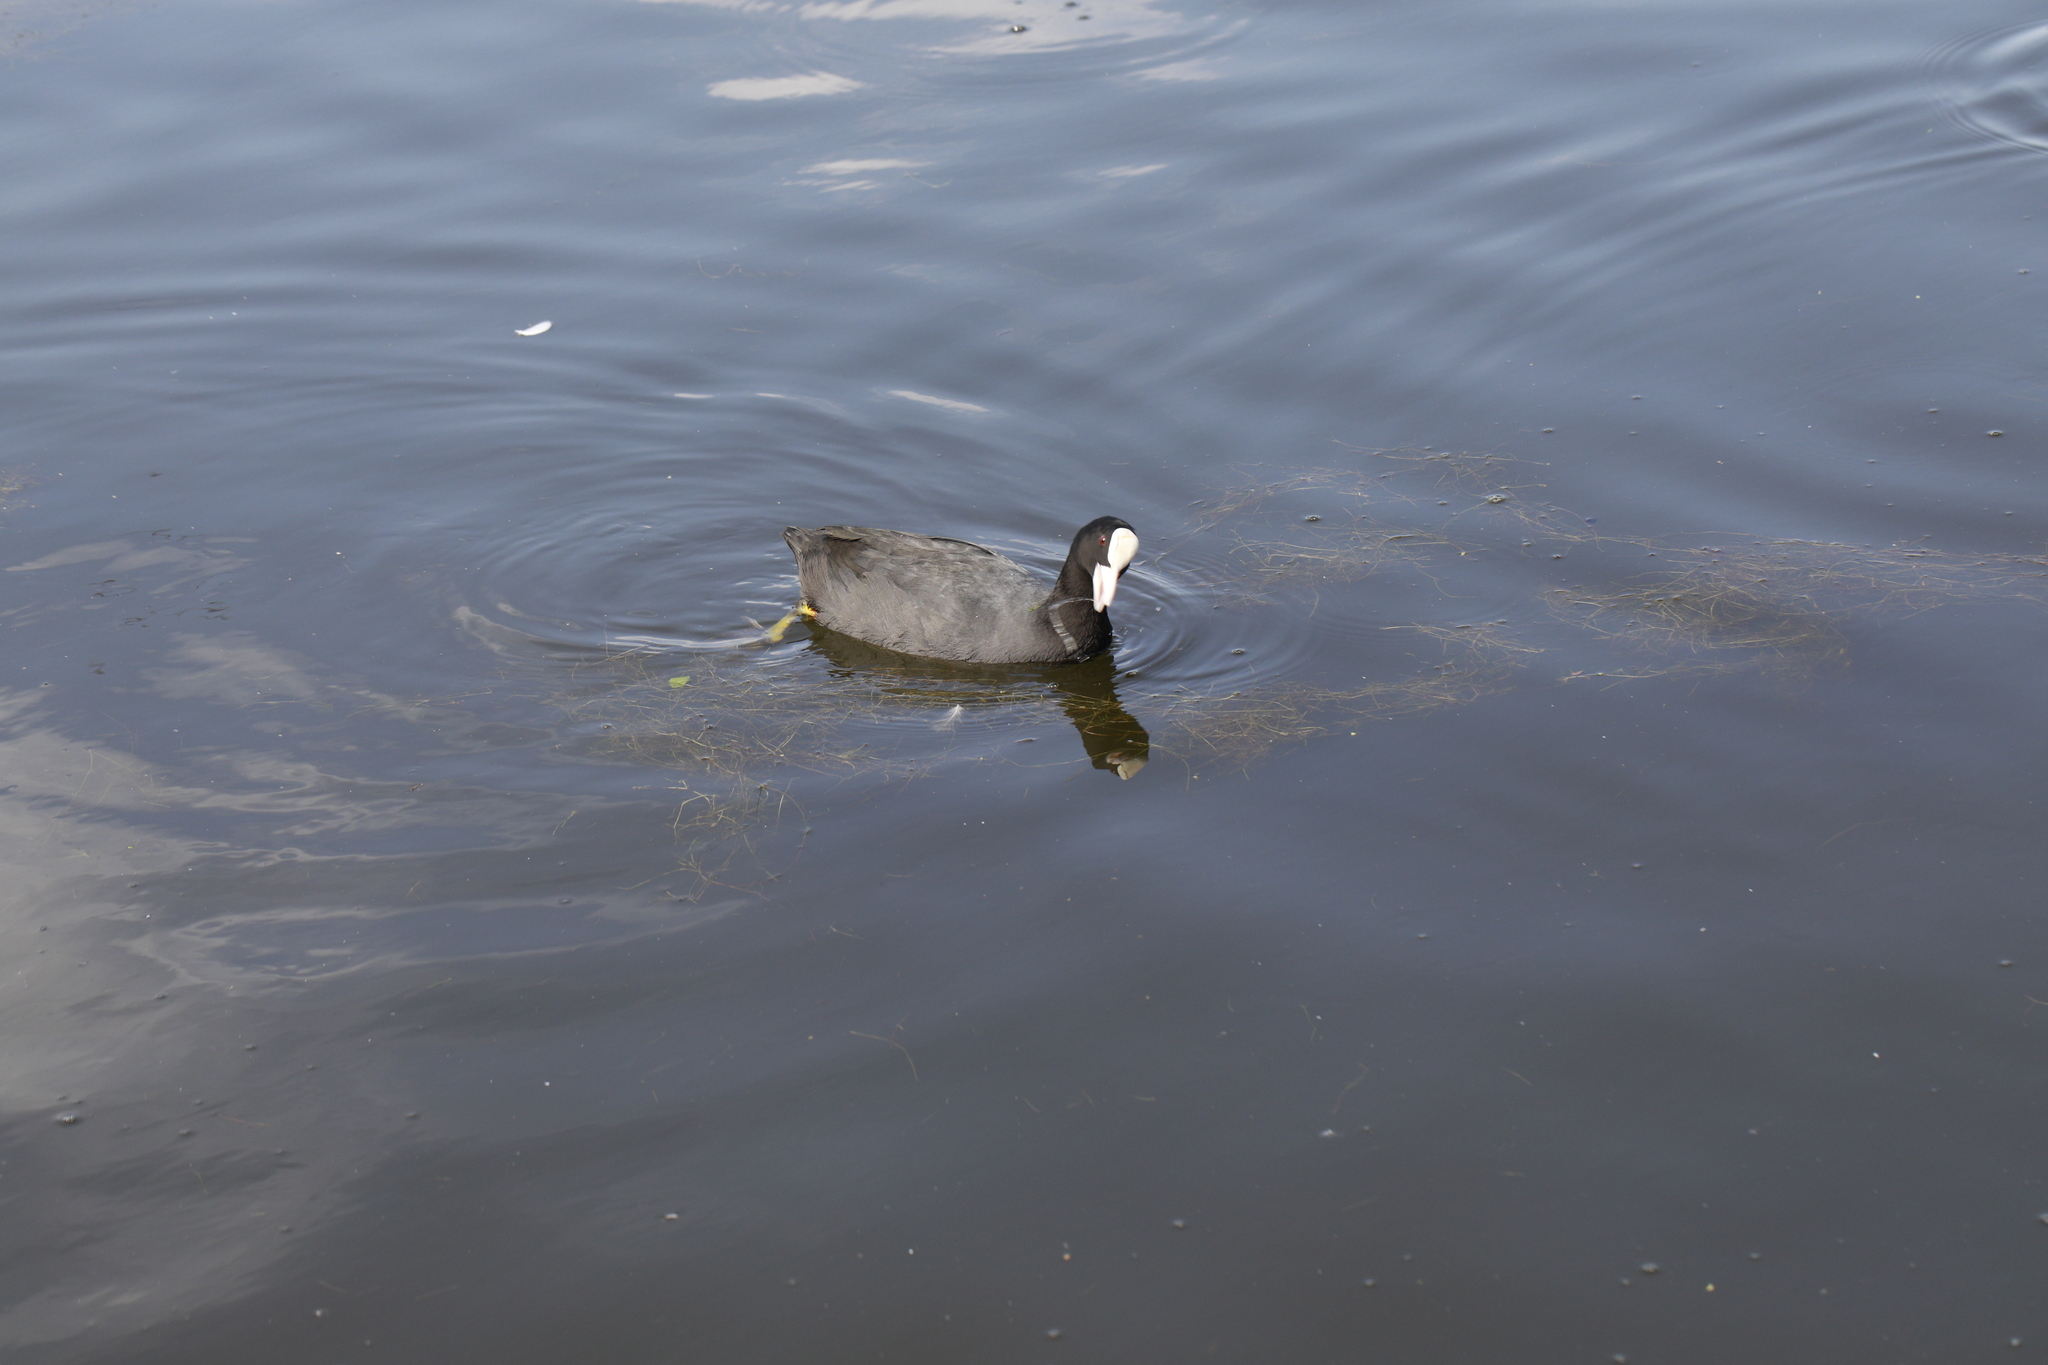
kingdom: Animalia
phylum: Chordata
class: Aves
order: Gruiformes
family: Rallidae
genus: Fulica
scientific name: Fulica atra
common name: Eurasian coot
